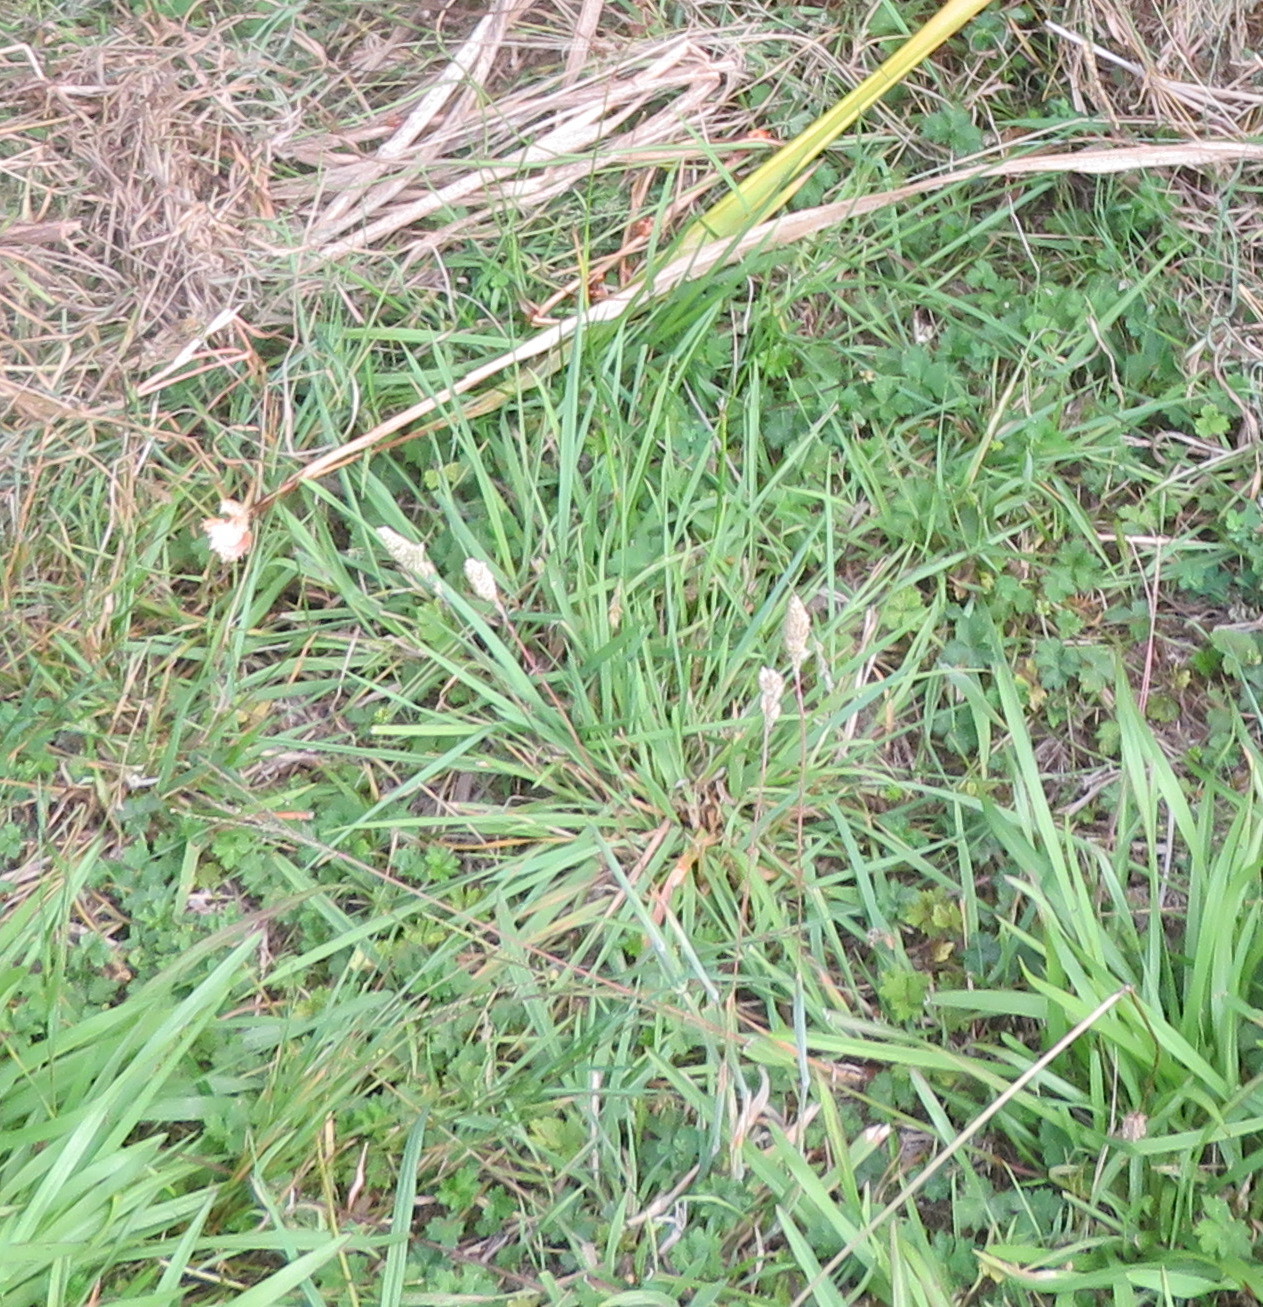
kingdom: Plantae
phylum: Tracheophyta
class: Liliopsida
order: Poales
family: Poaceae
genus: Holcus
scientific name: Holcus lanatus
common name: Yorkshire-fog
